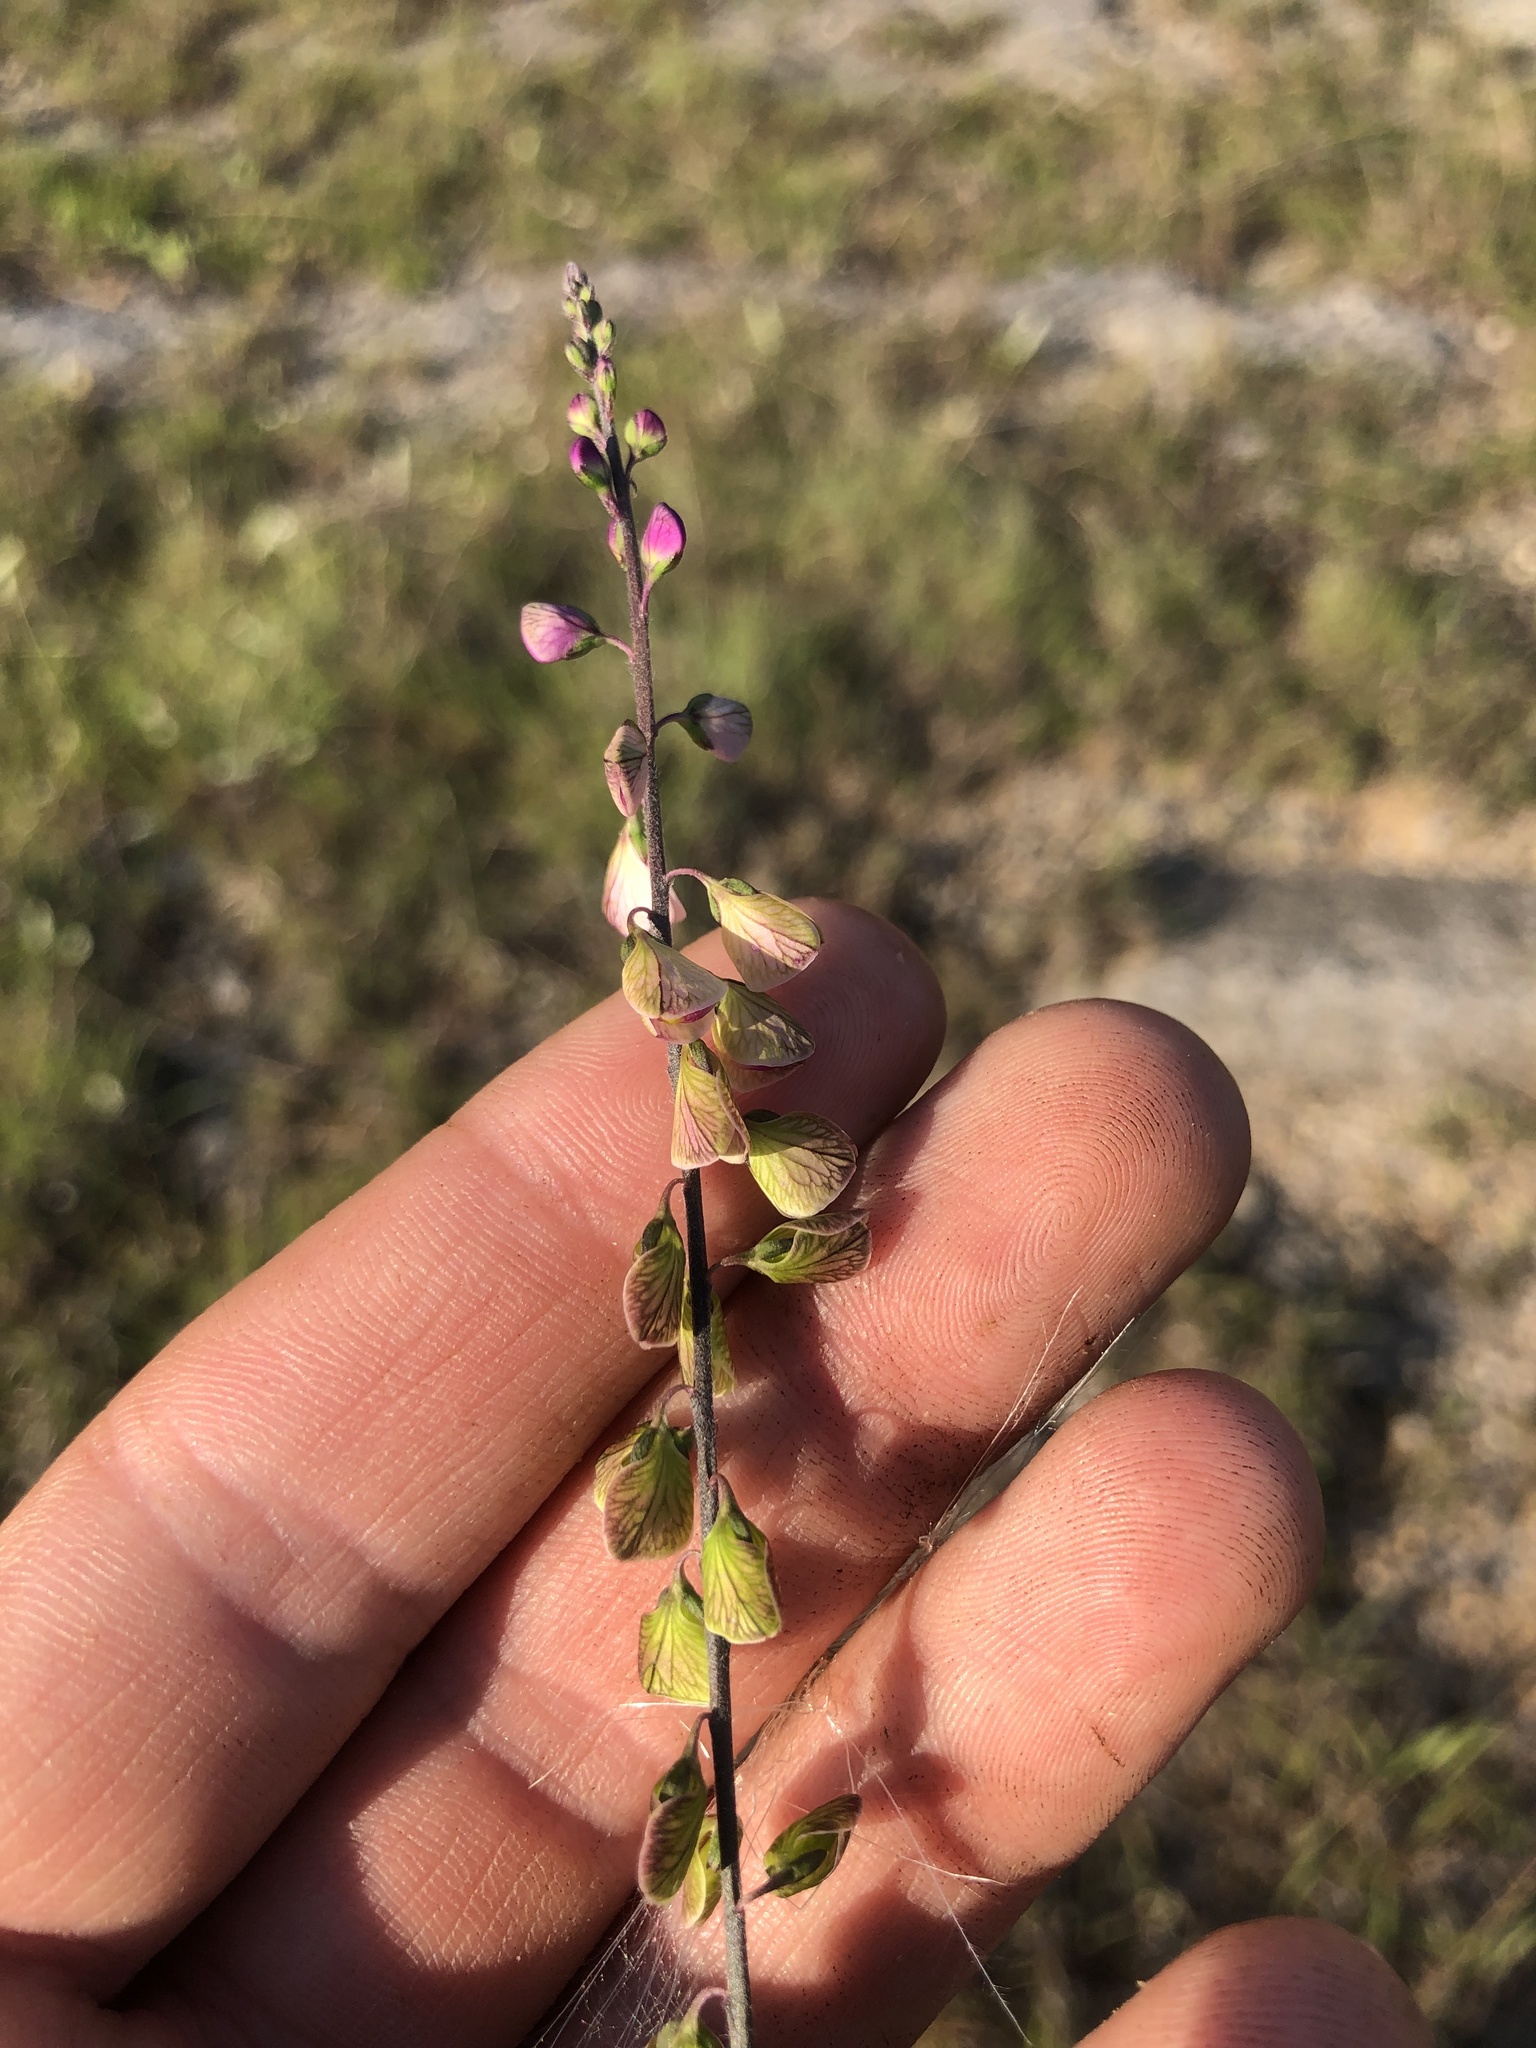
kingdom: Plantae
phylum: Tracheophyta
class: Magnoliopsida
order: Fabales
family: Polygalaceae
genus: Asemeia
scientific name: Asemeia grandiflora
